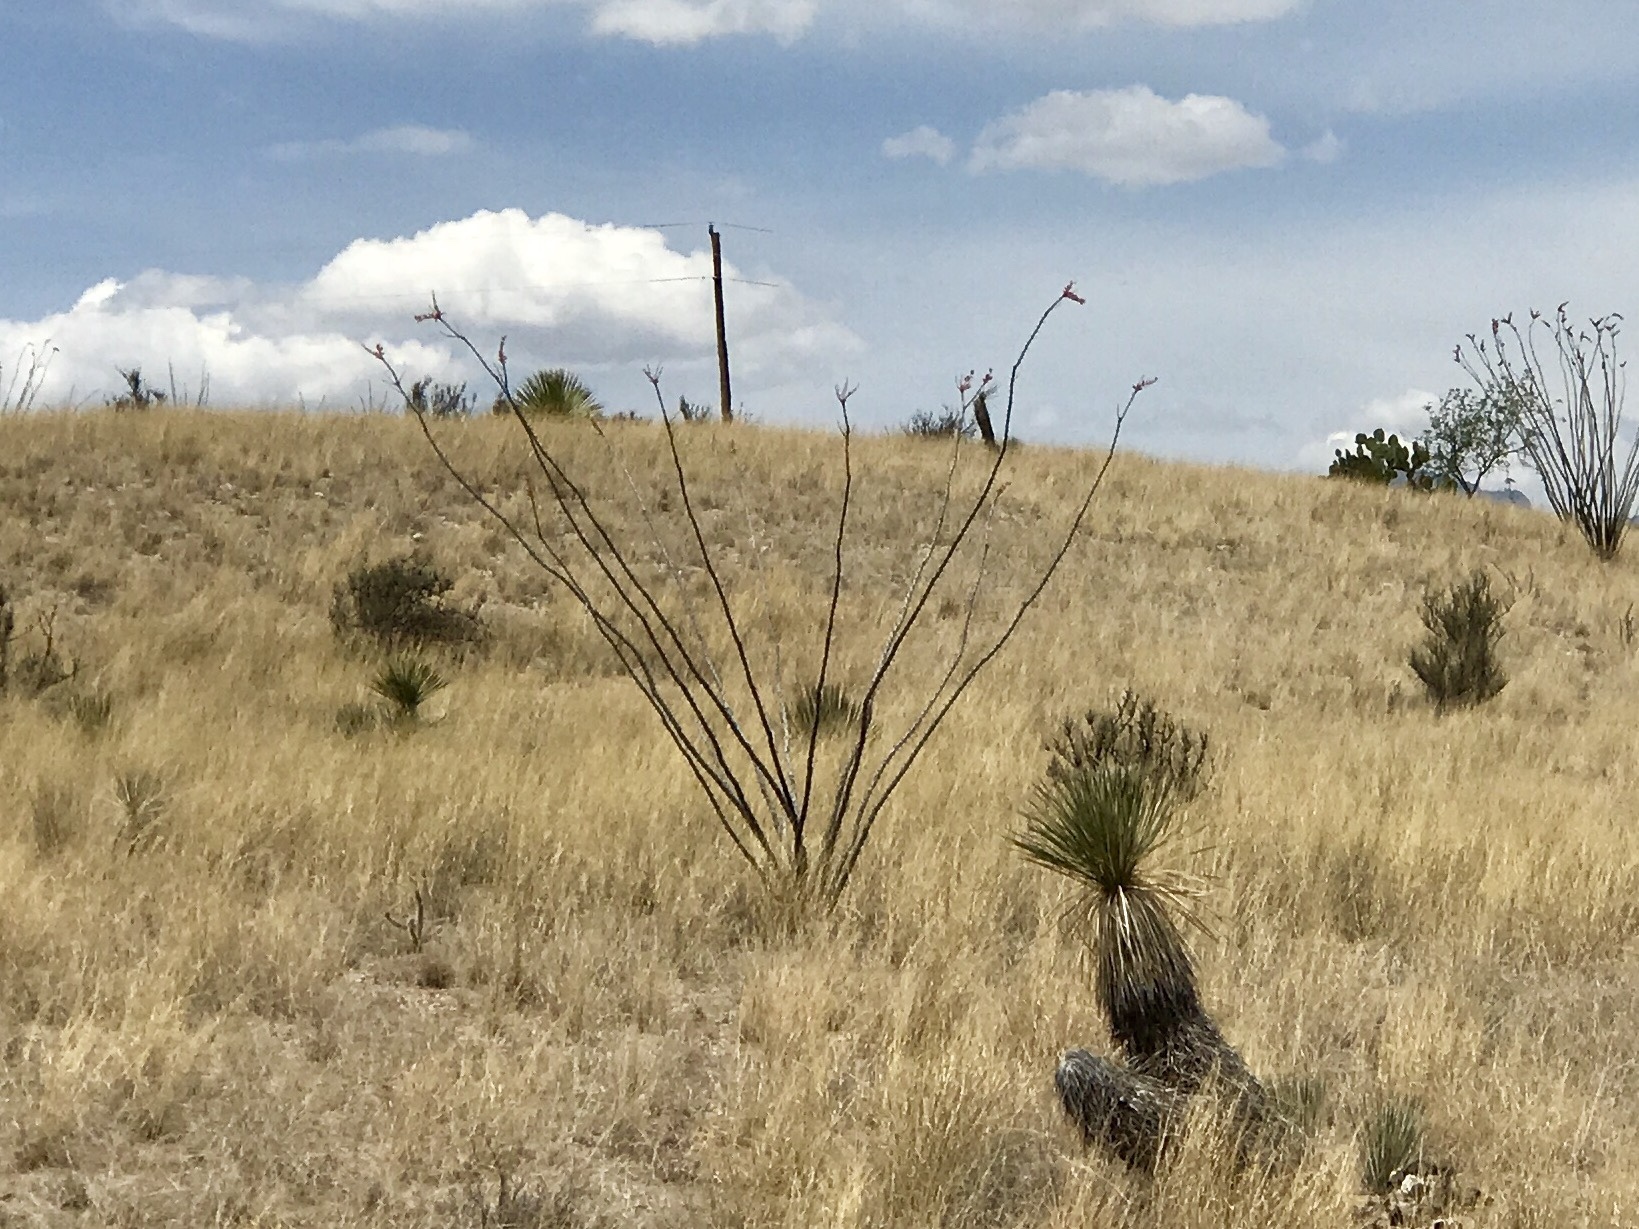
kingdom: Plantae
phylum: Tracheophyta
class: Magnoliopsida
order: Ericales
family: Fouquieriaceae
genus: Fouquieria
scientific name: Fouquieria splendens
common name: Vine-cactus
